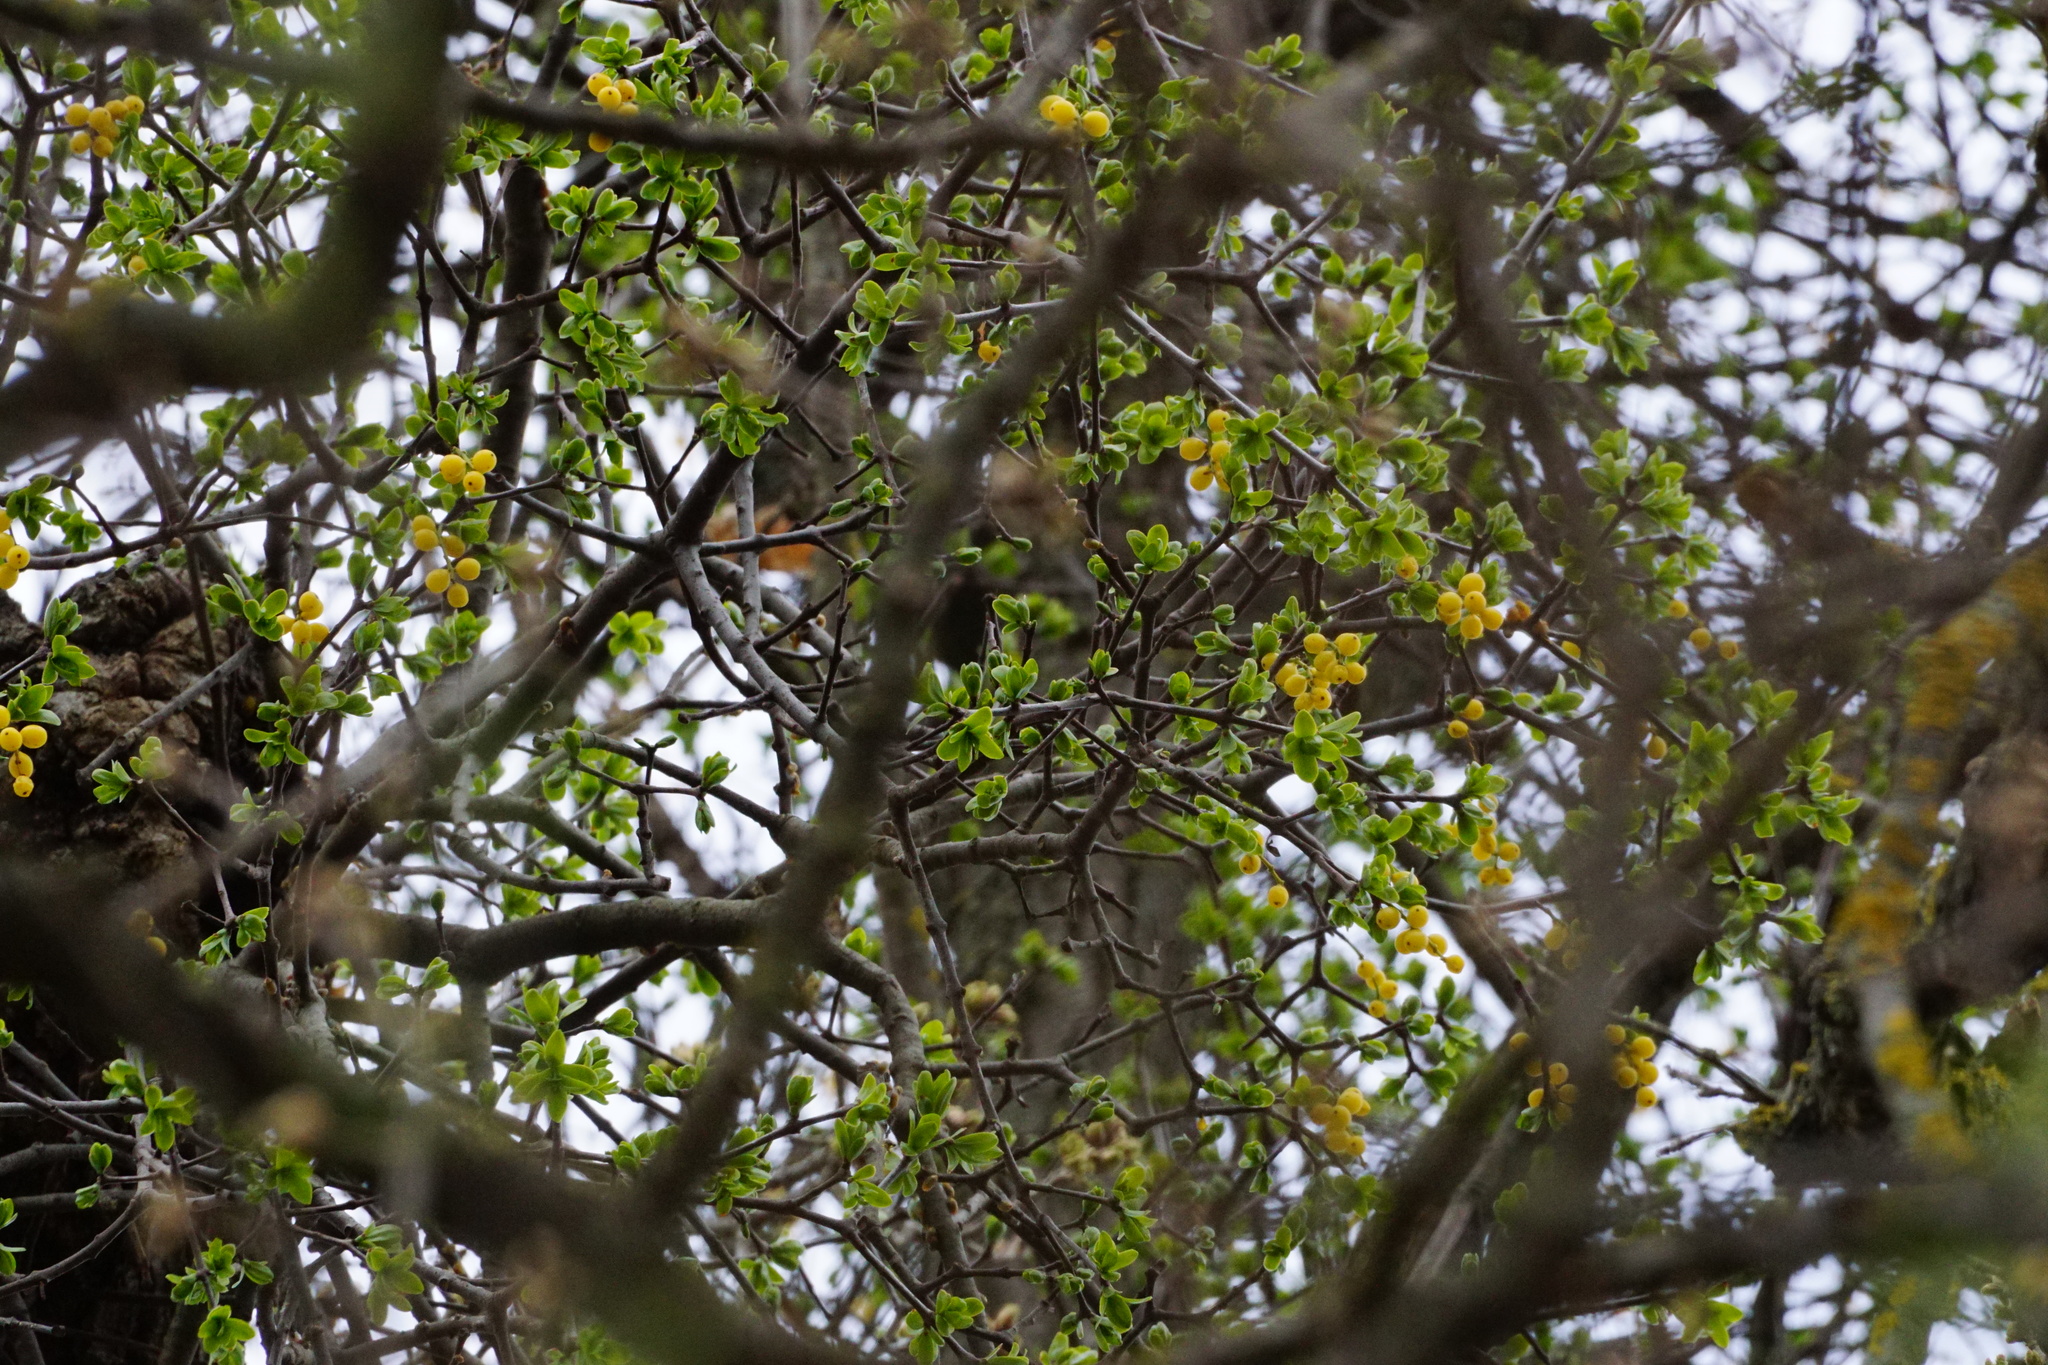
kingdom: Plantae
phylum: Tracheophyta
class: Magnoliopsida
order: Santalales
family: Loranthaceae
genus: Loranthus
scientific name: Loranthus europaeus
